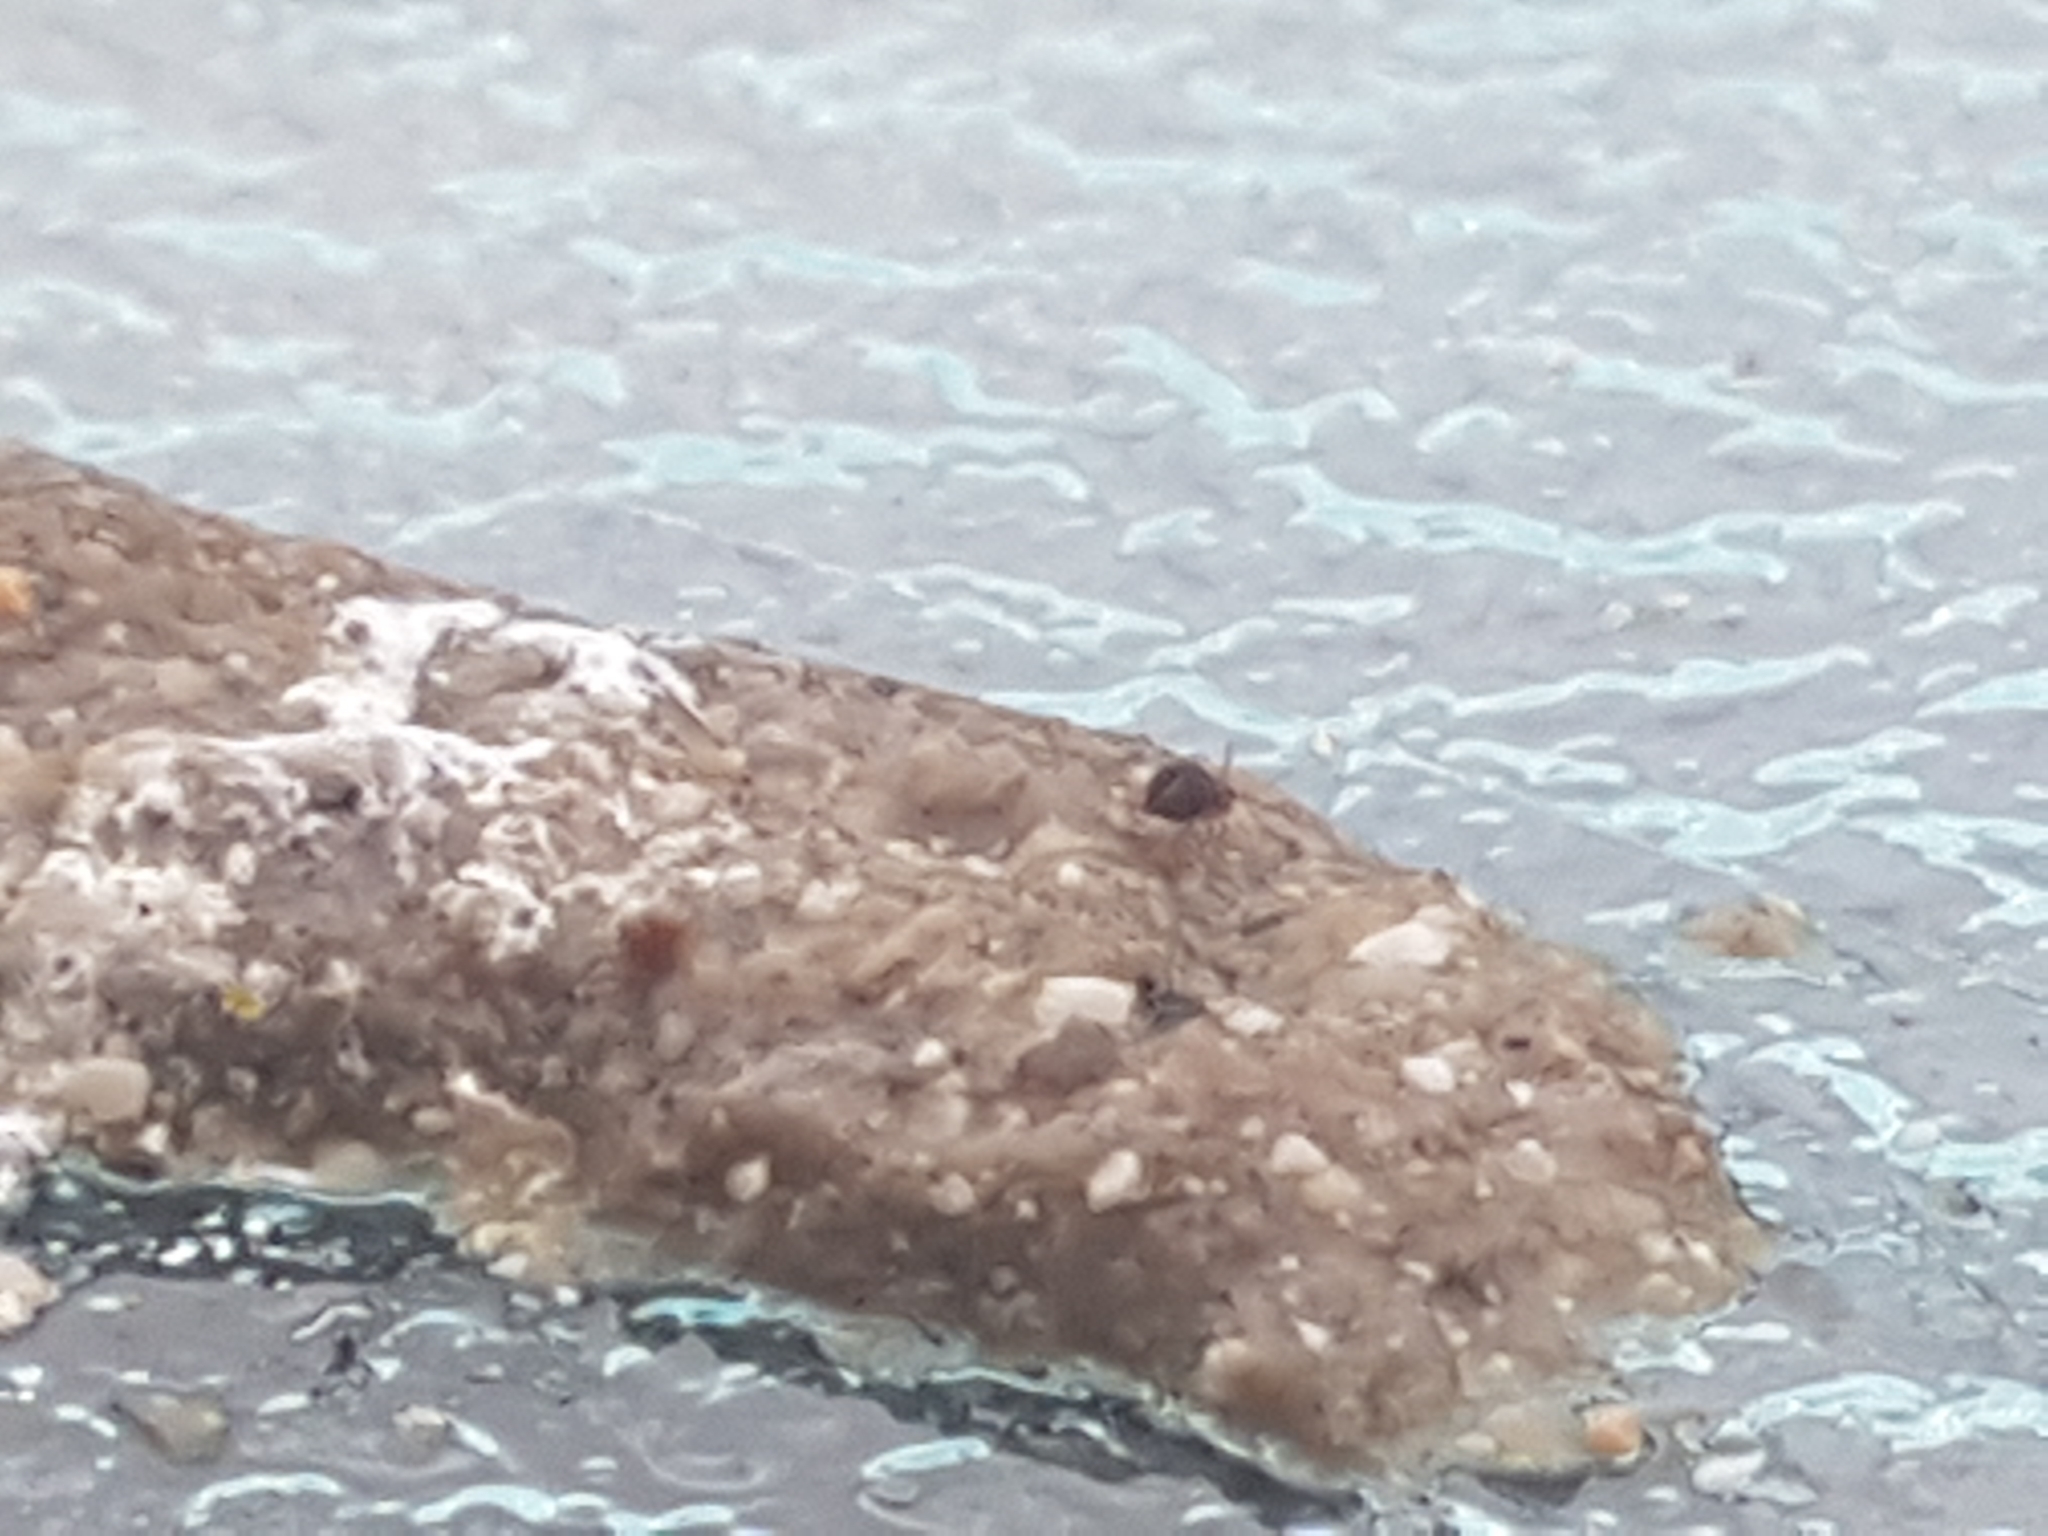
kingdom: Animalia
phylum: Chordata
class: Aves
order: Passeriformes
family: Corvidae
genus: Corvus
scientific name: Corvus brachyrhynchos
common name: American crow
